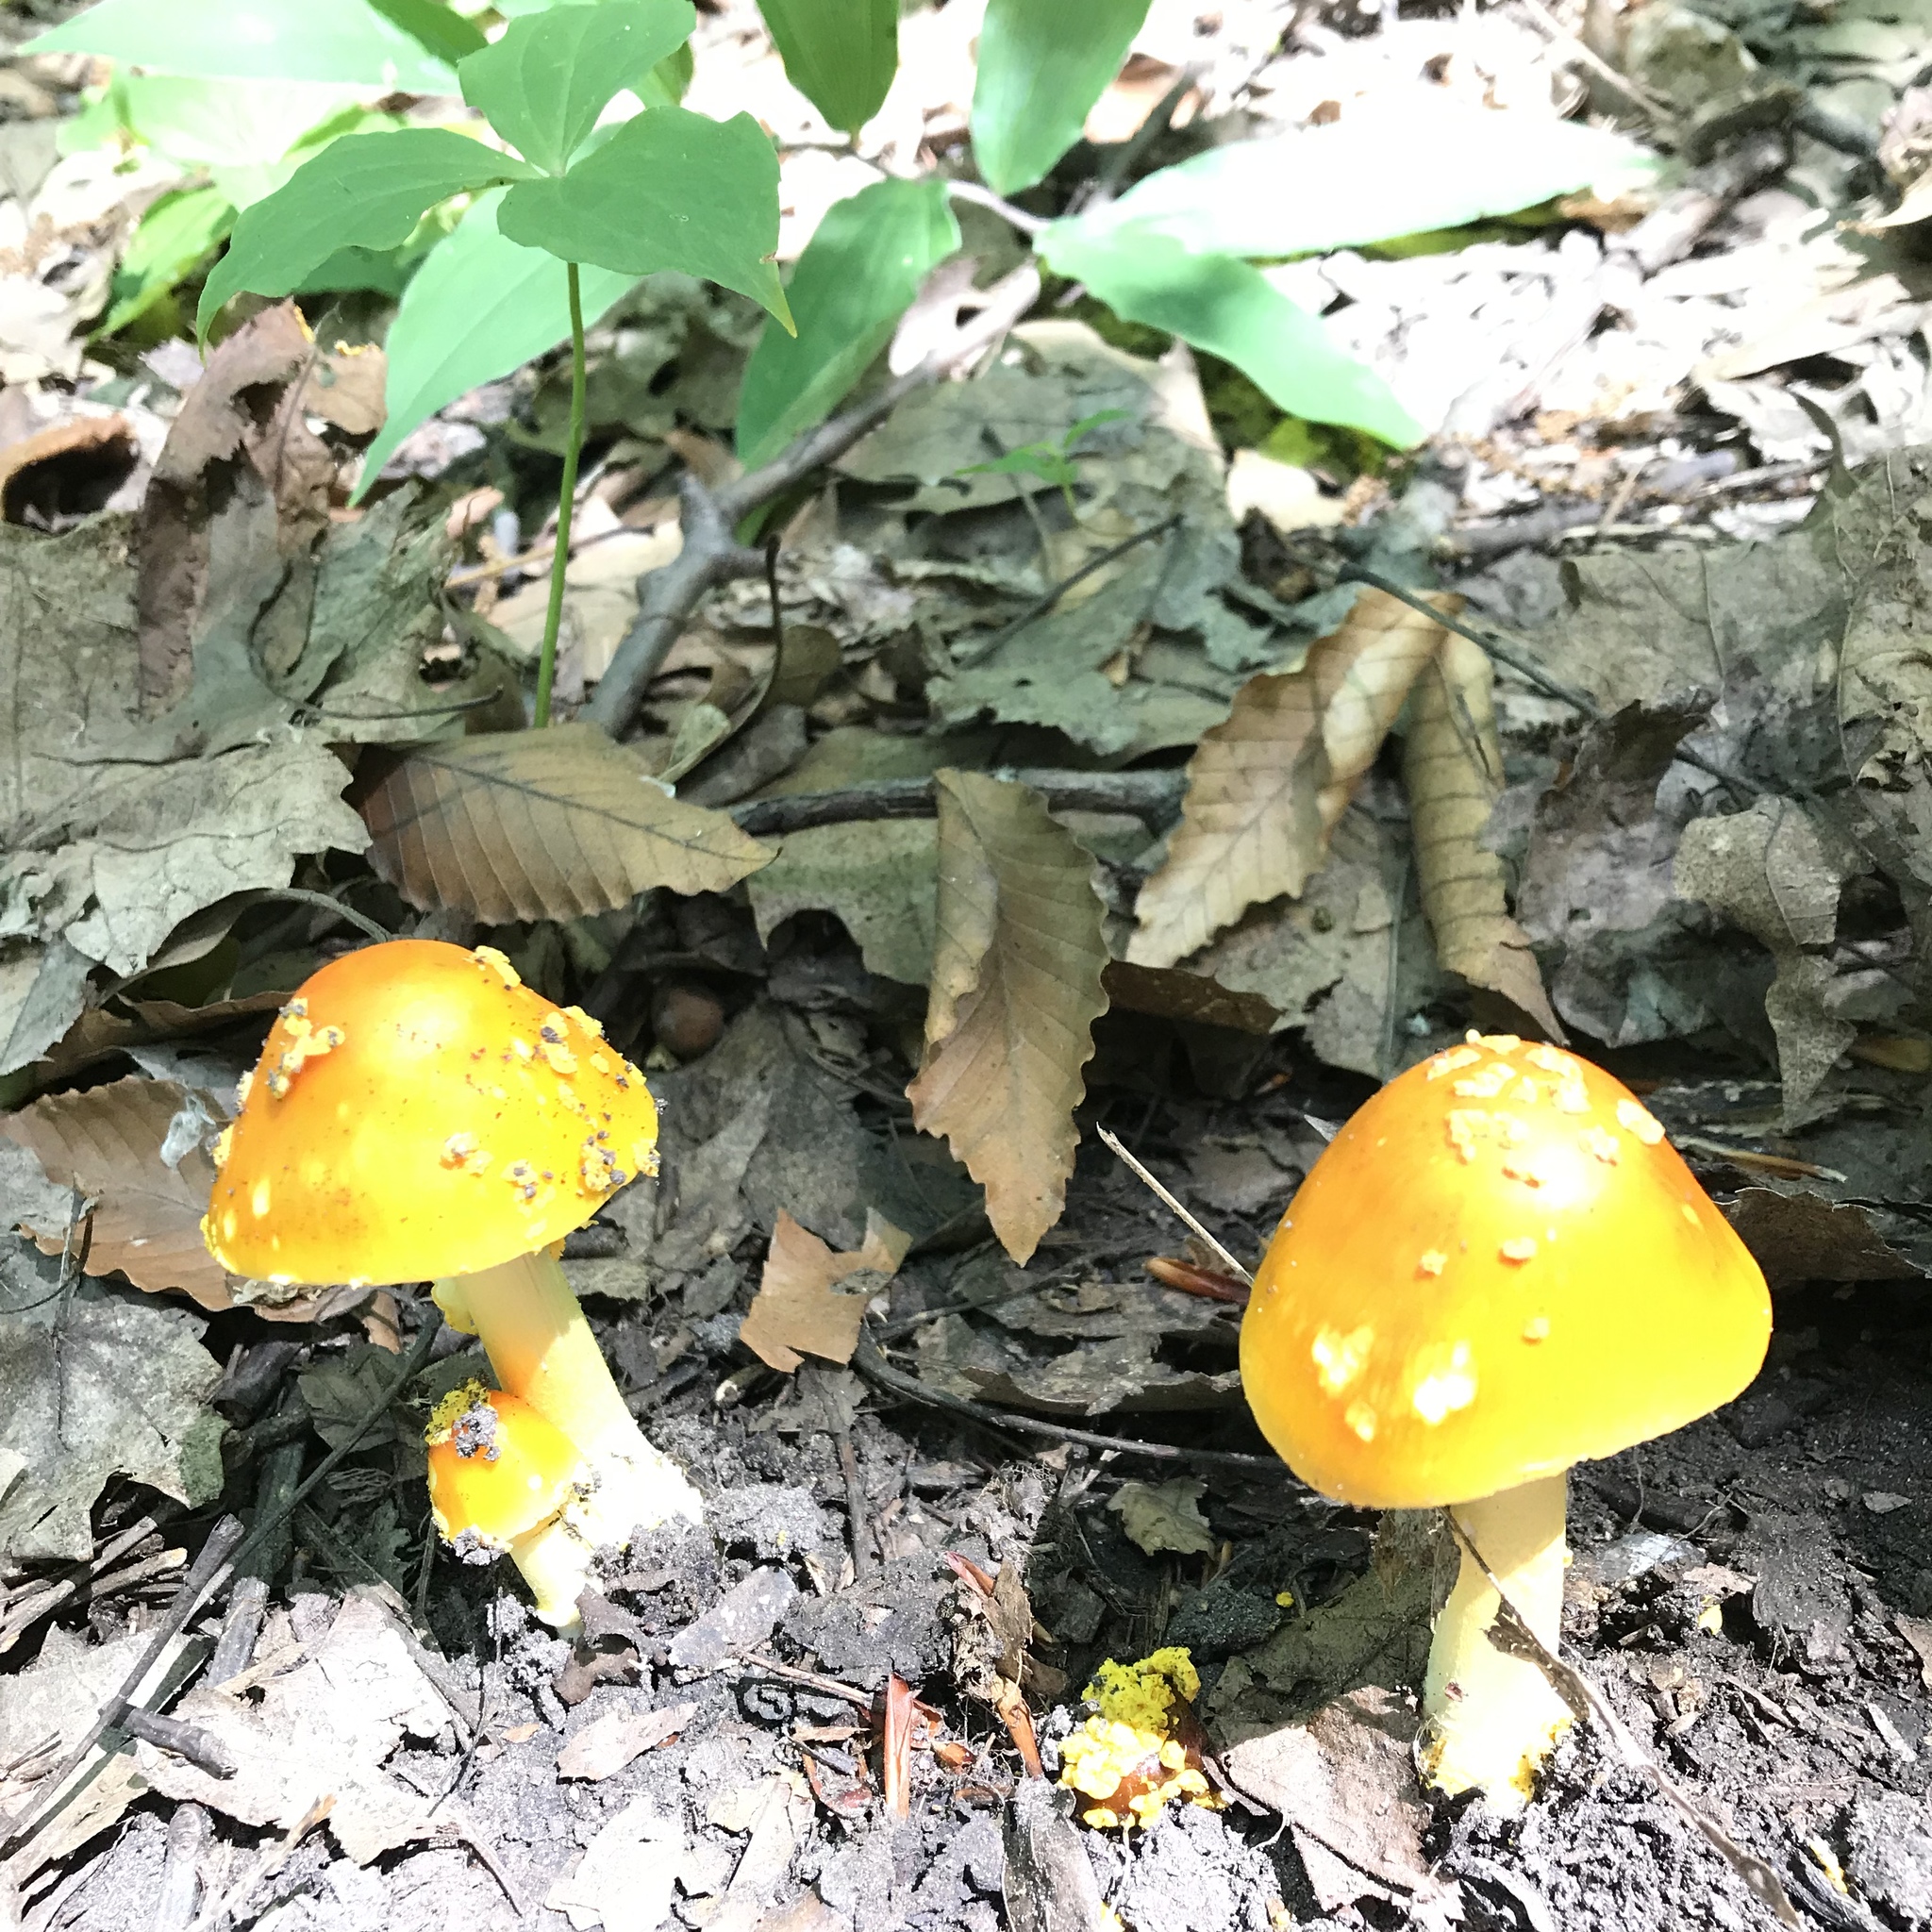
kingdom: Fungi
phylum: Basidiomycota
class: Agaricomycetes
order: Agaricales
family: Amanitaceae
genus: Amanita
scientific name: Amanita flavoconia
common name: Yellow patches
